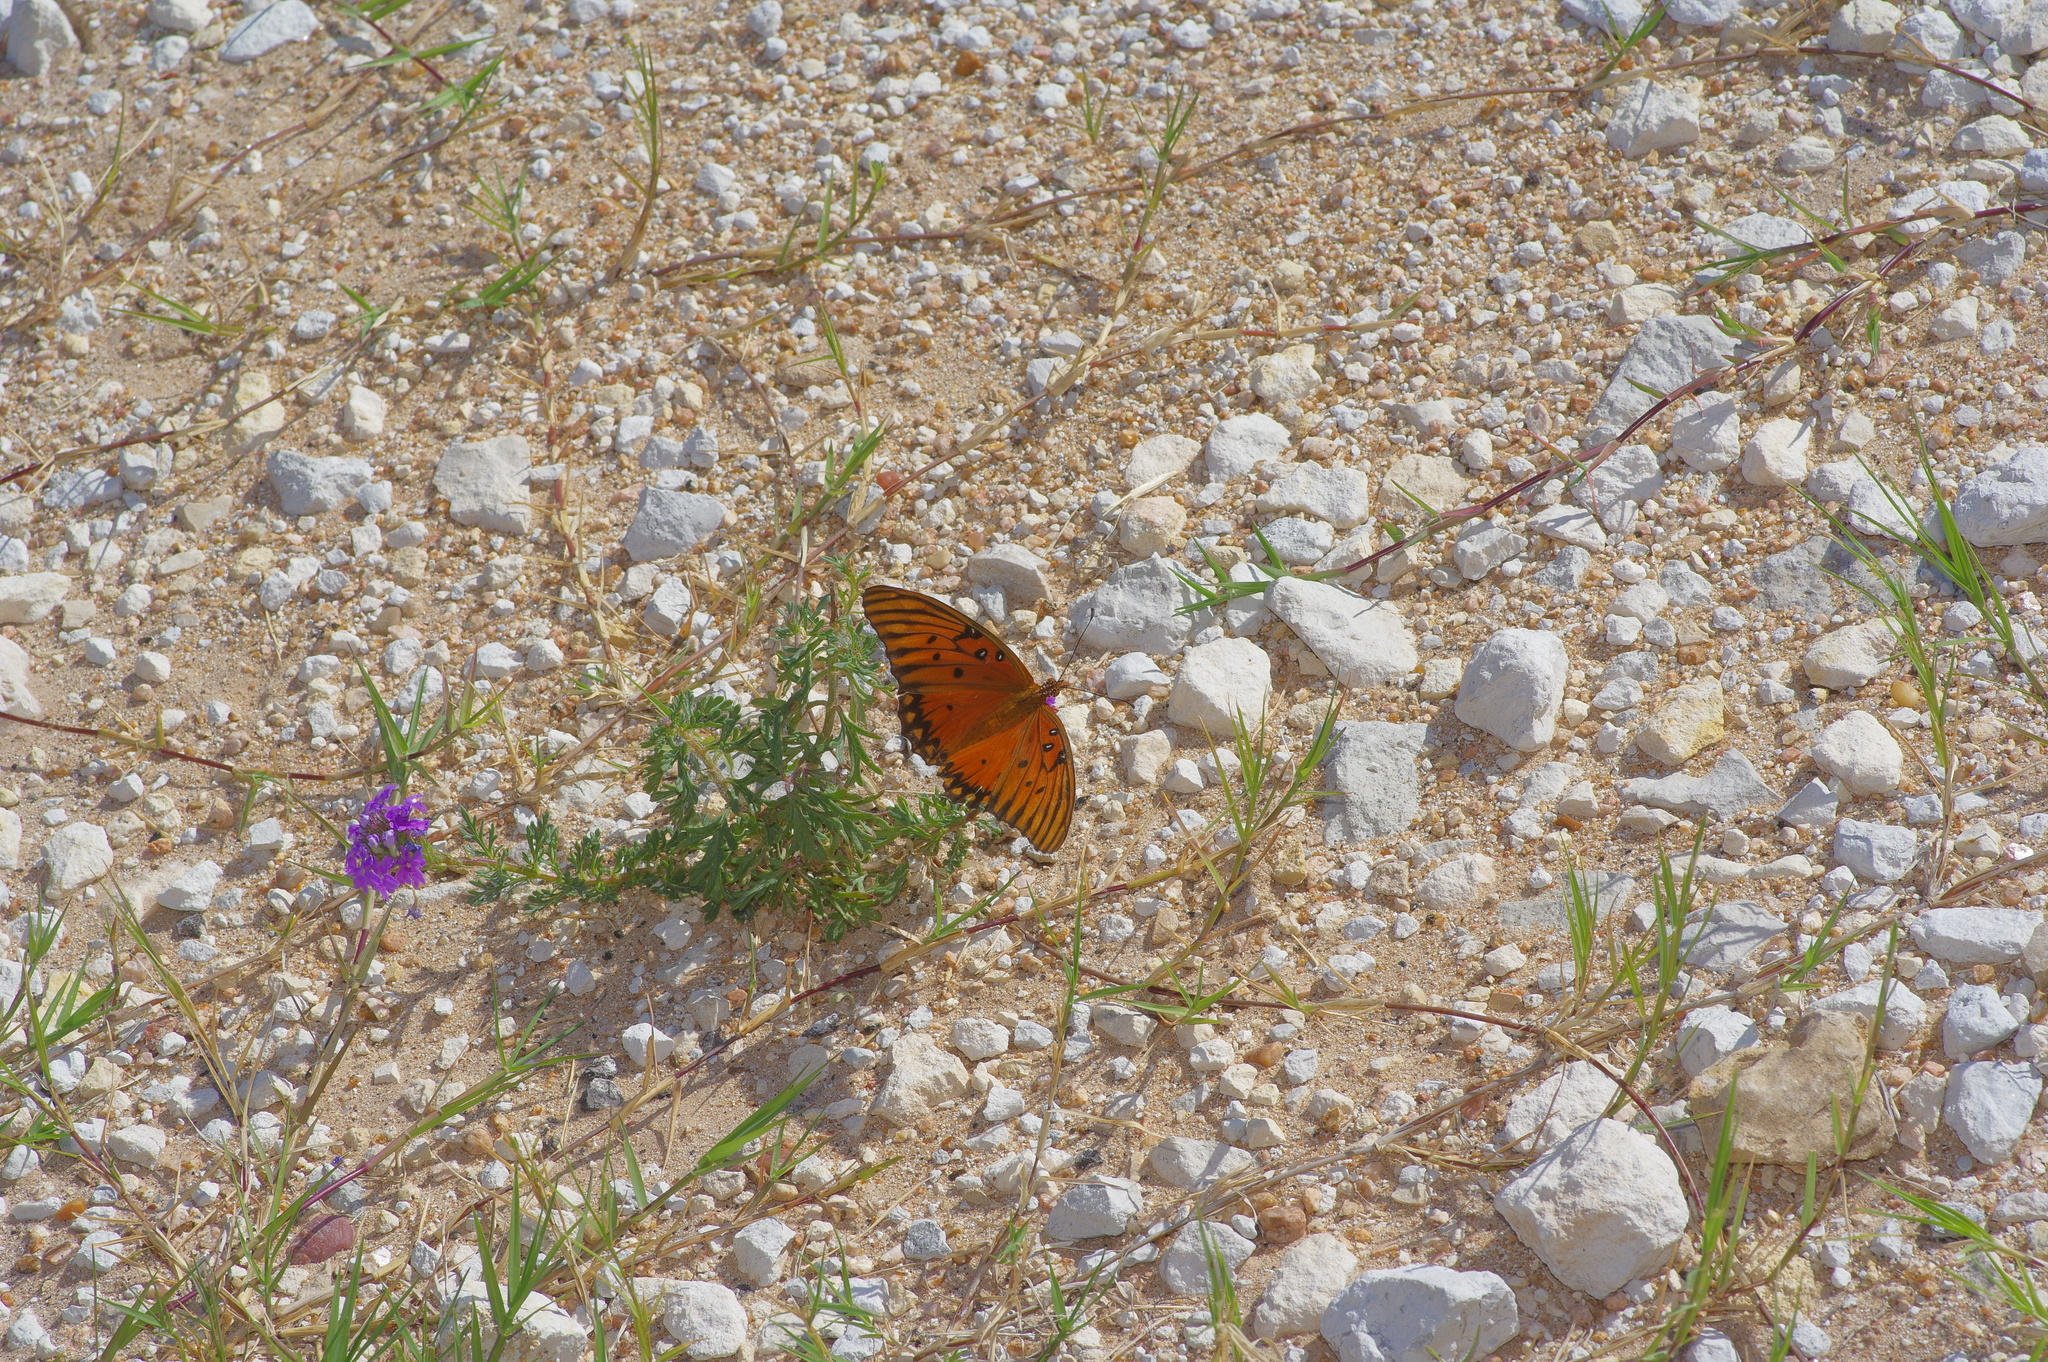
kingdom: Animalia
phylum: Arthropoda
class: Insecta
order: Lepidoptera
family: Nymphalidae
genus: Dione
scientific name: Dione vanillae
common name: Gulf fritillary
